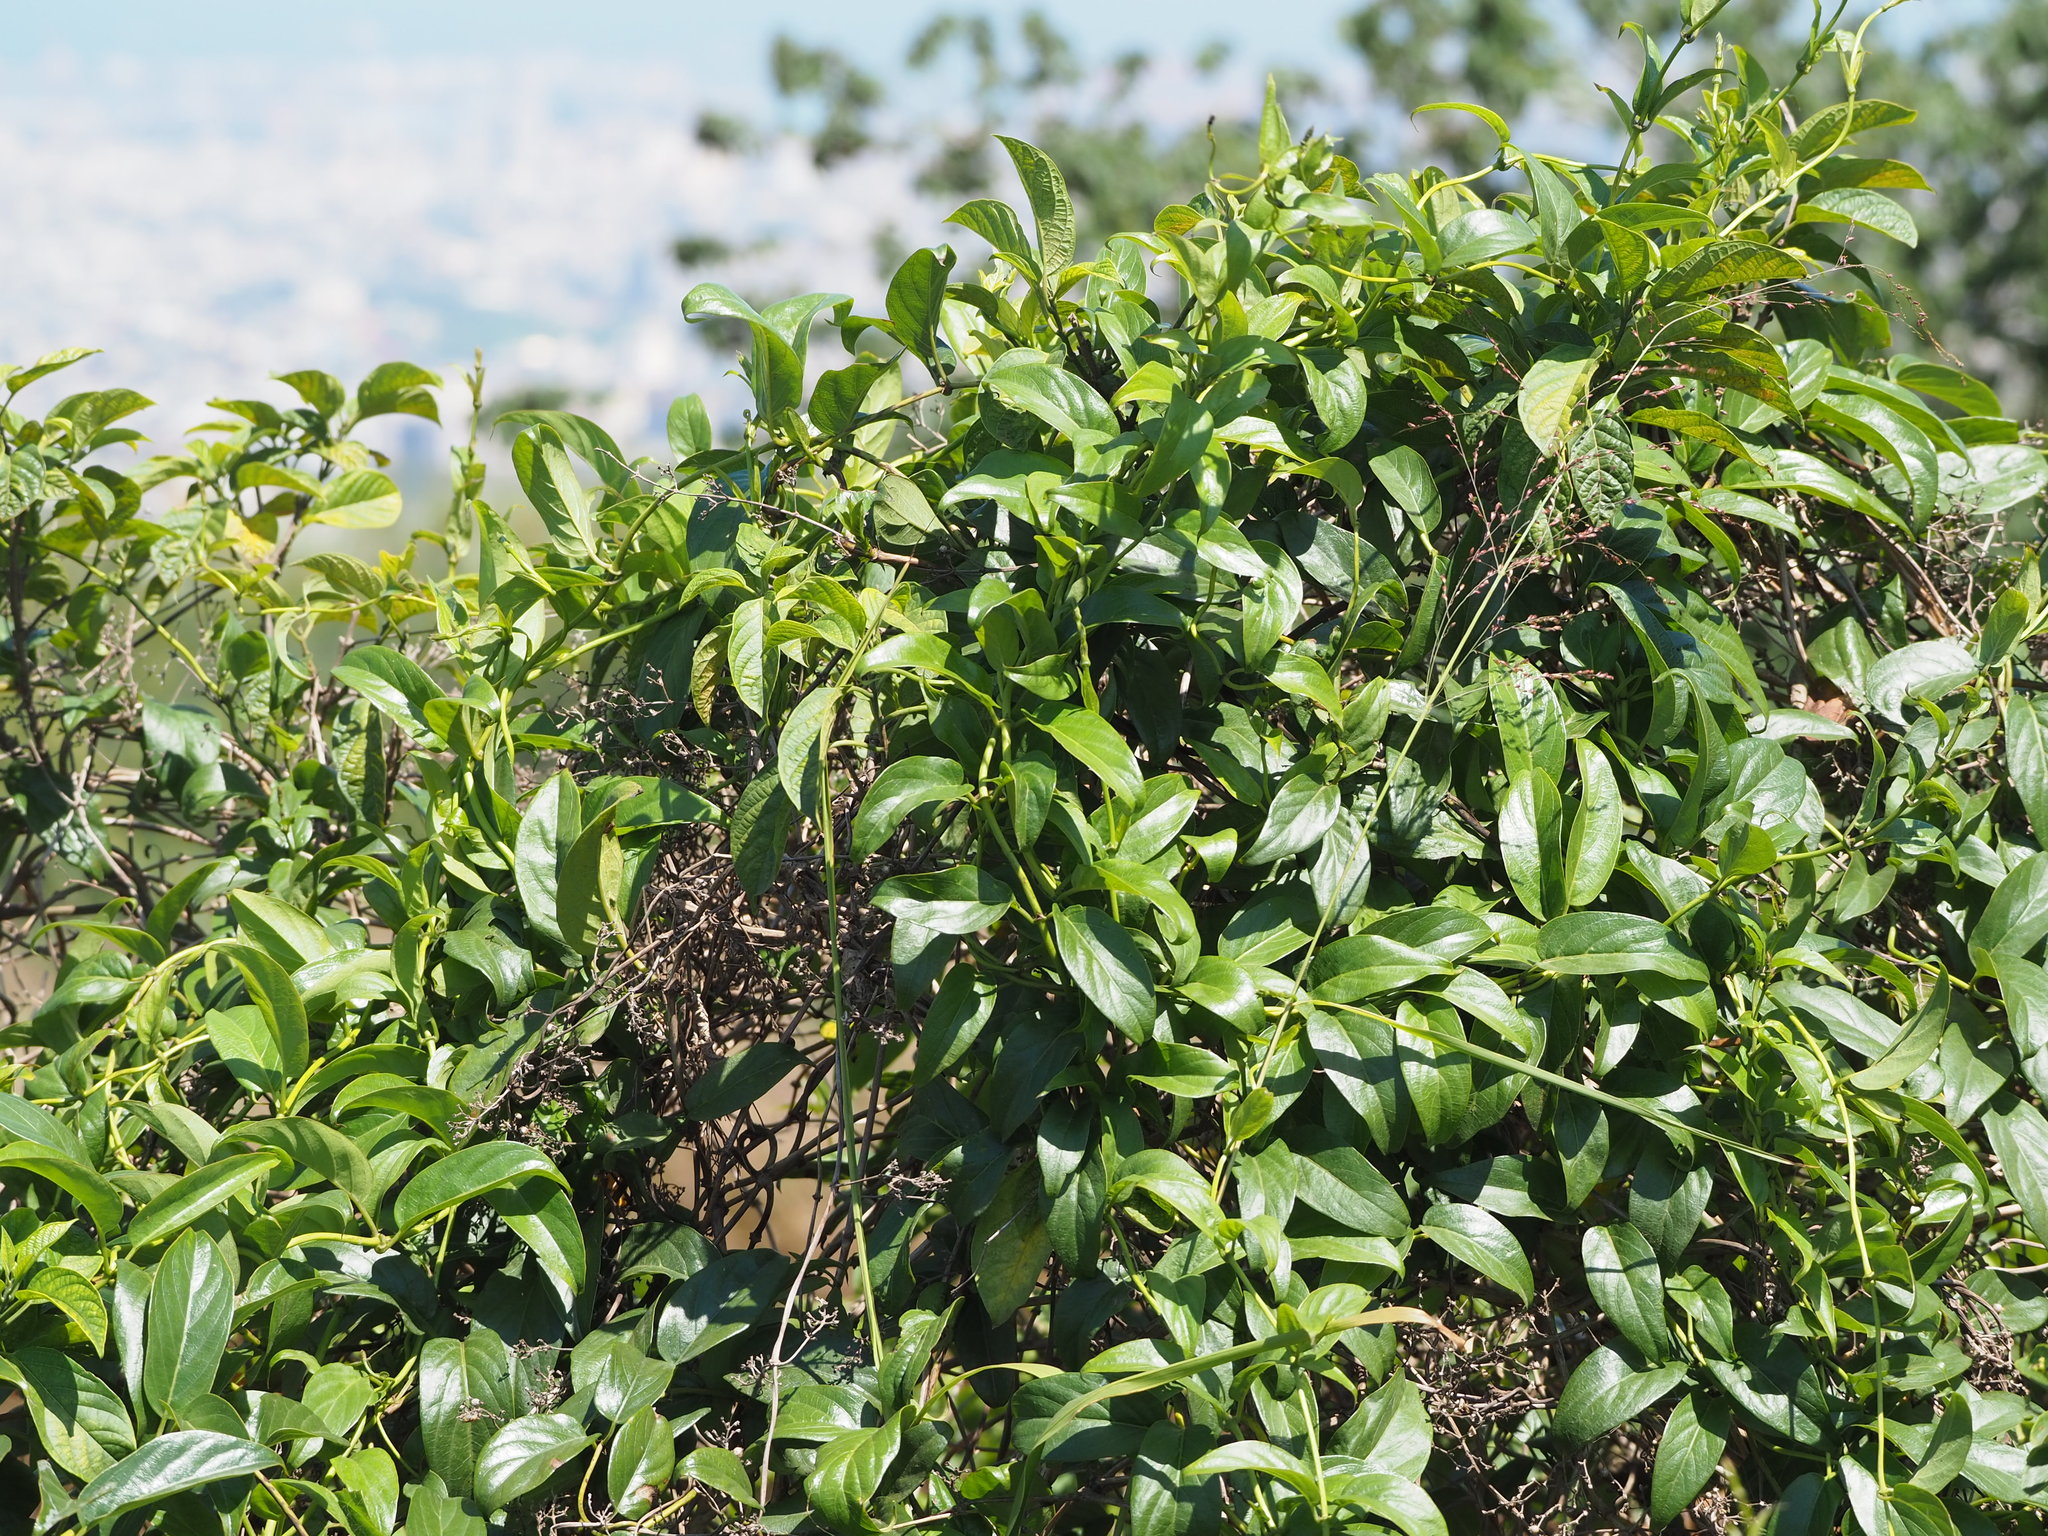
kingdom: Plantae
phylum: Tracheophyta
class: Magnoliopsida
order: Gentianales
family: Rubiaceae
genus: Paederia
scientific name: Paederia foetida
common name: Stinkvine
